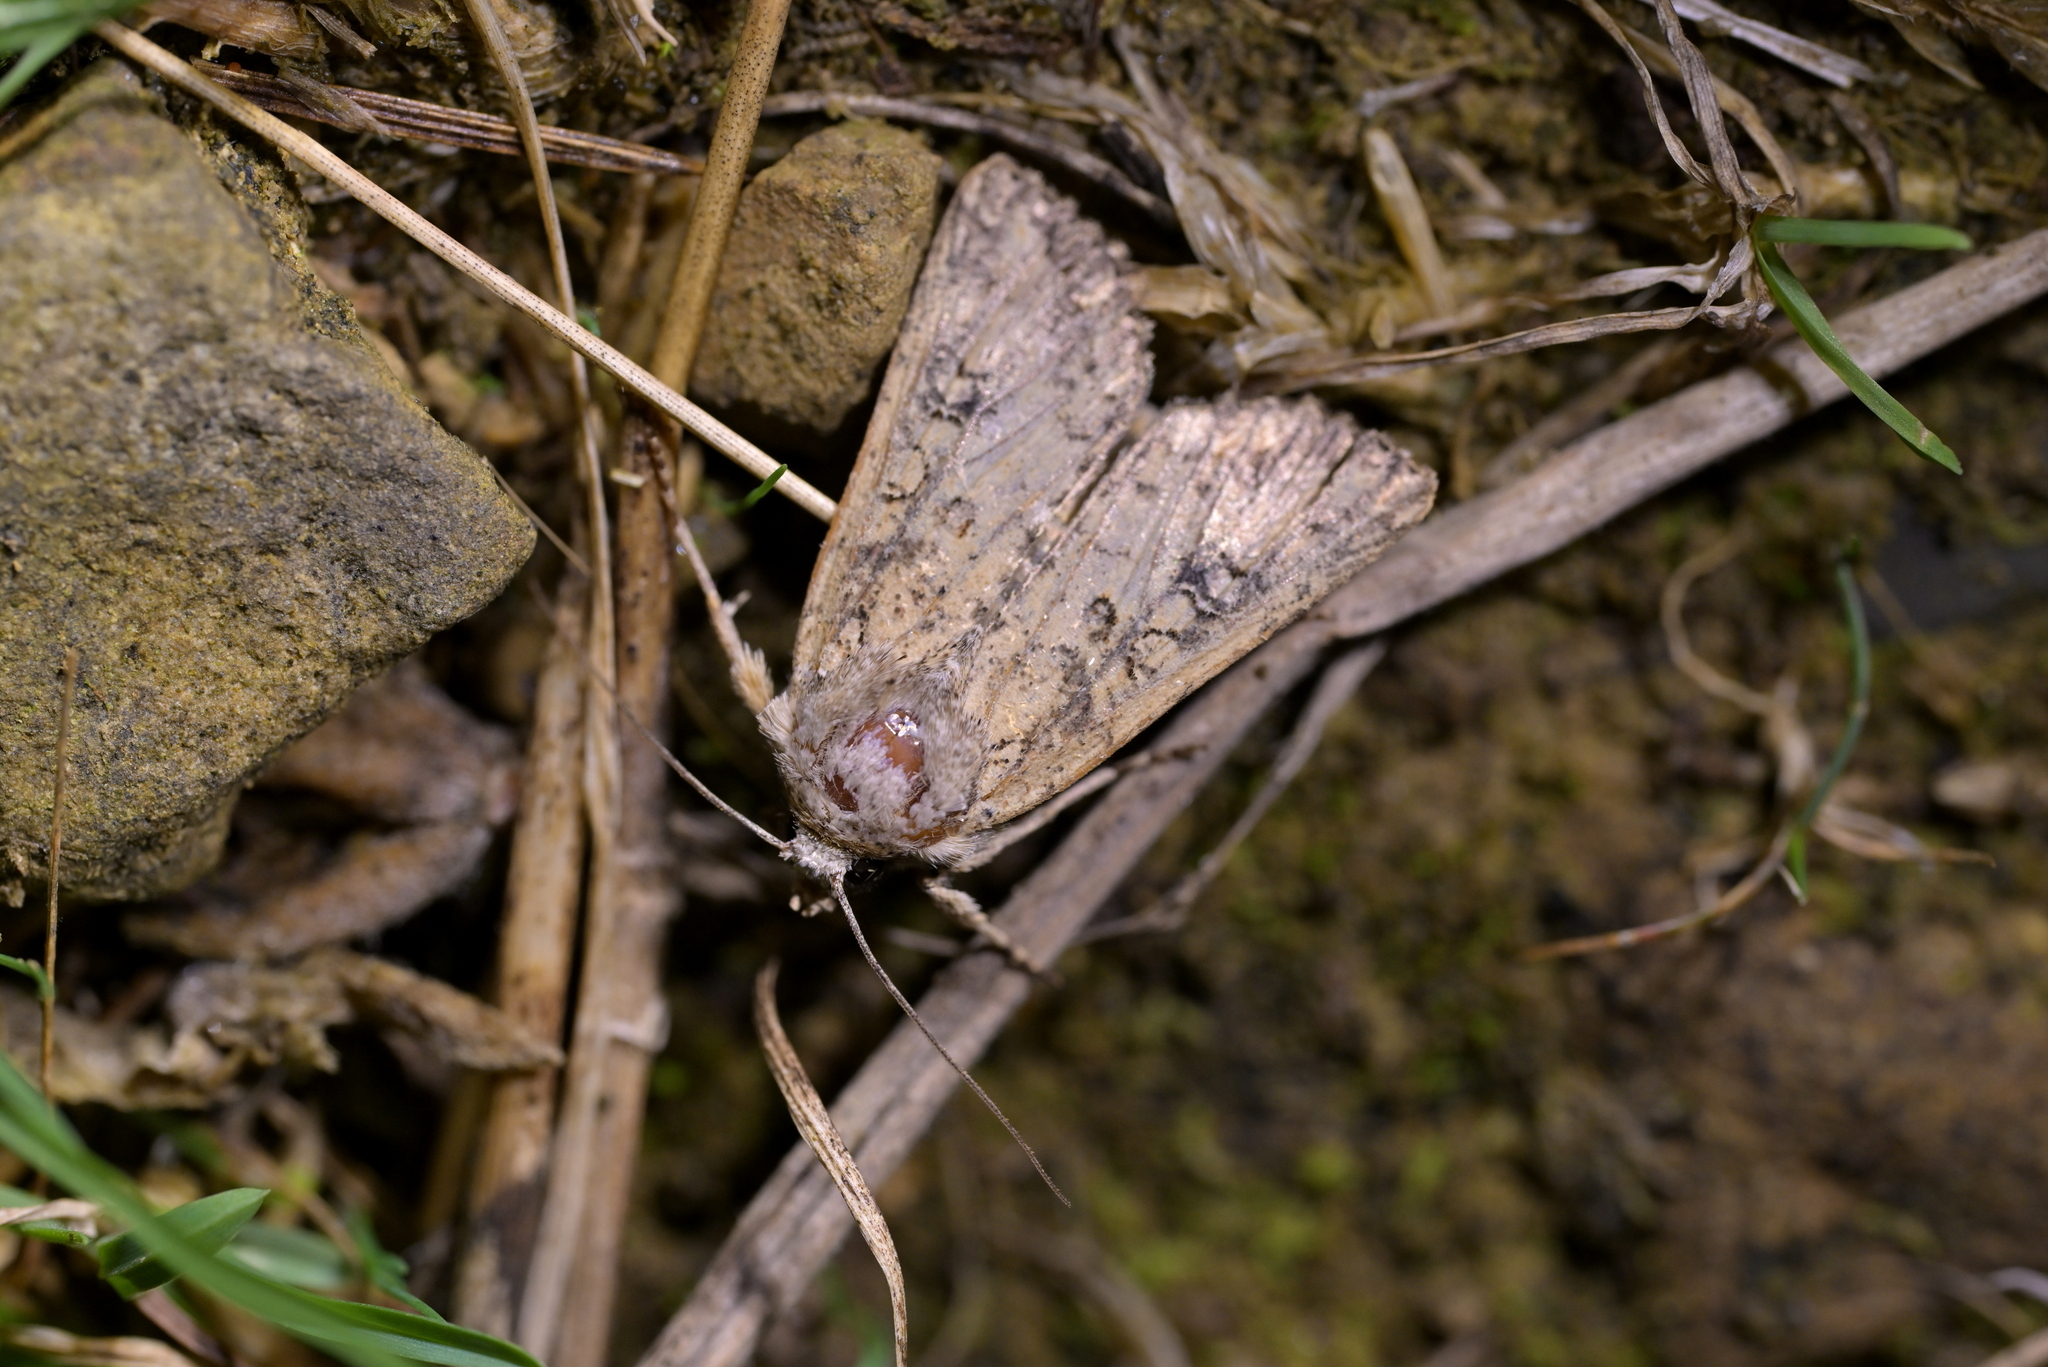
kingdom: Animalia
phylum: Arthropoda
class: Insecta
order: Lepidoptera
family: Noctuidae
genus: Ichneutica
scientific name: Ichneutica morosa
